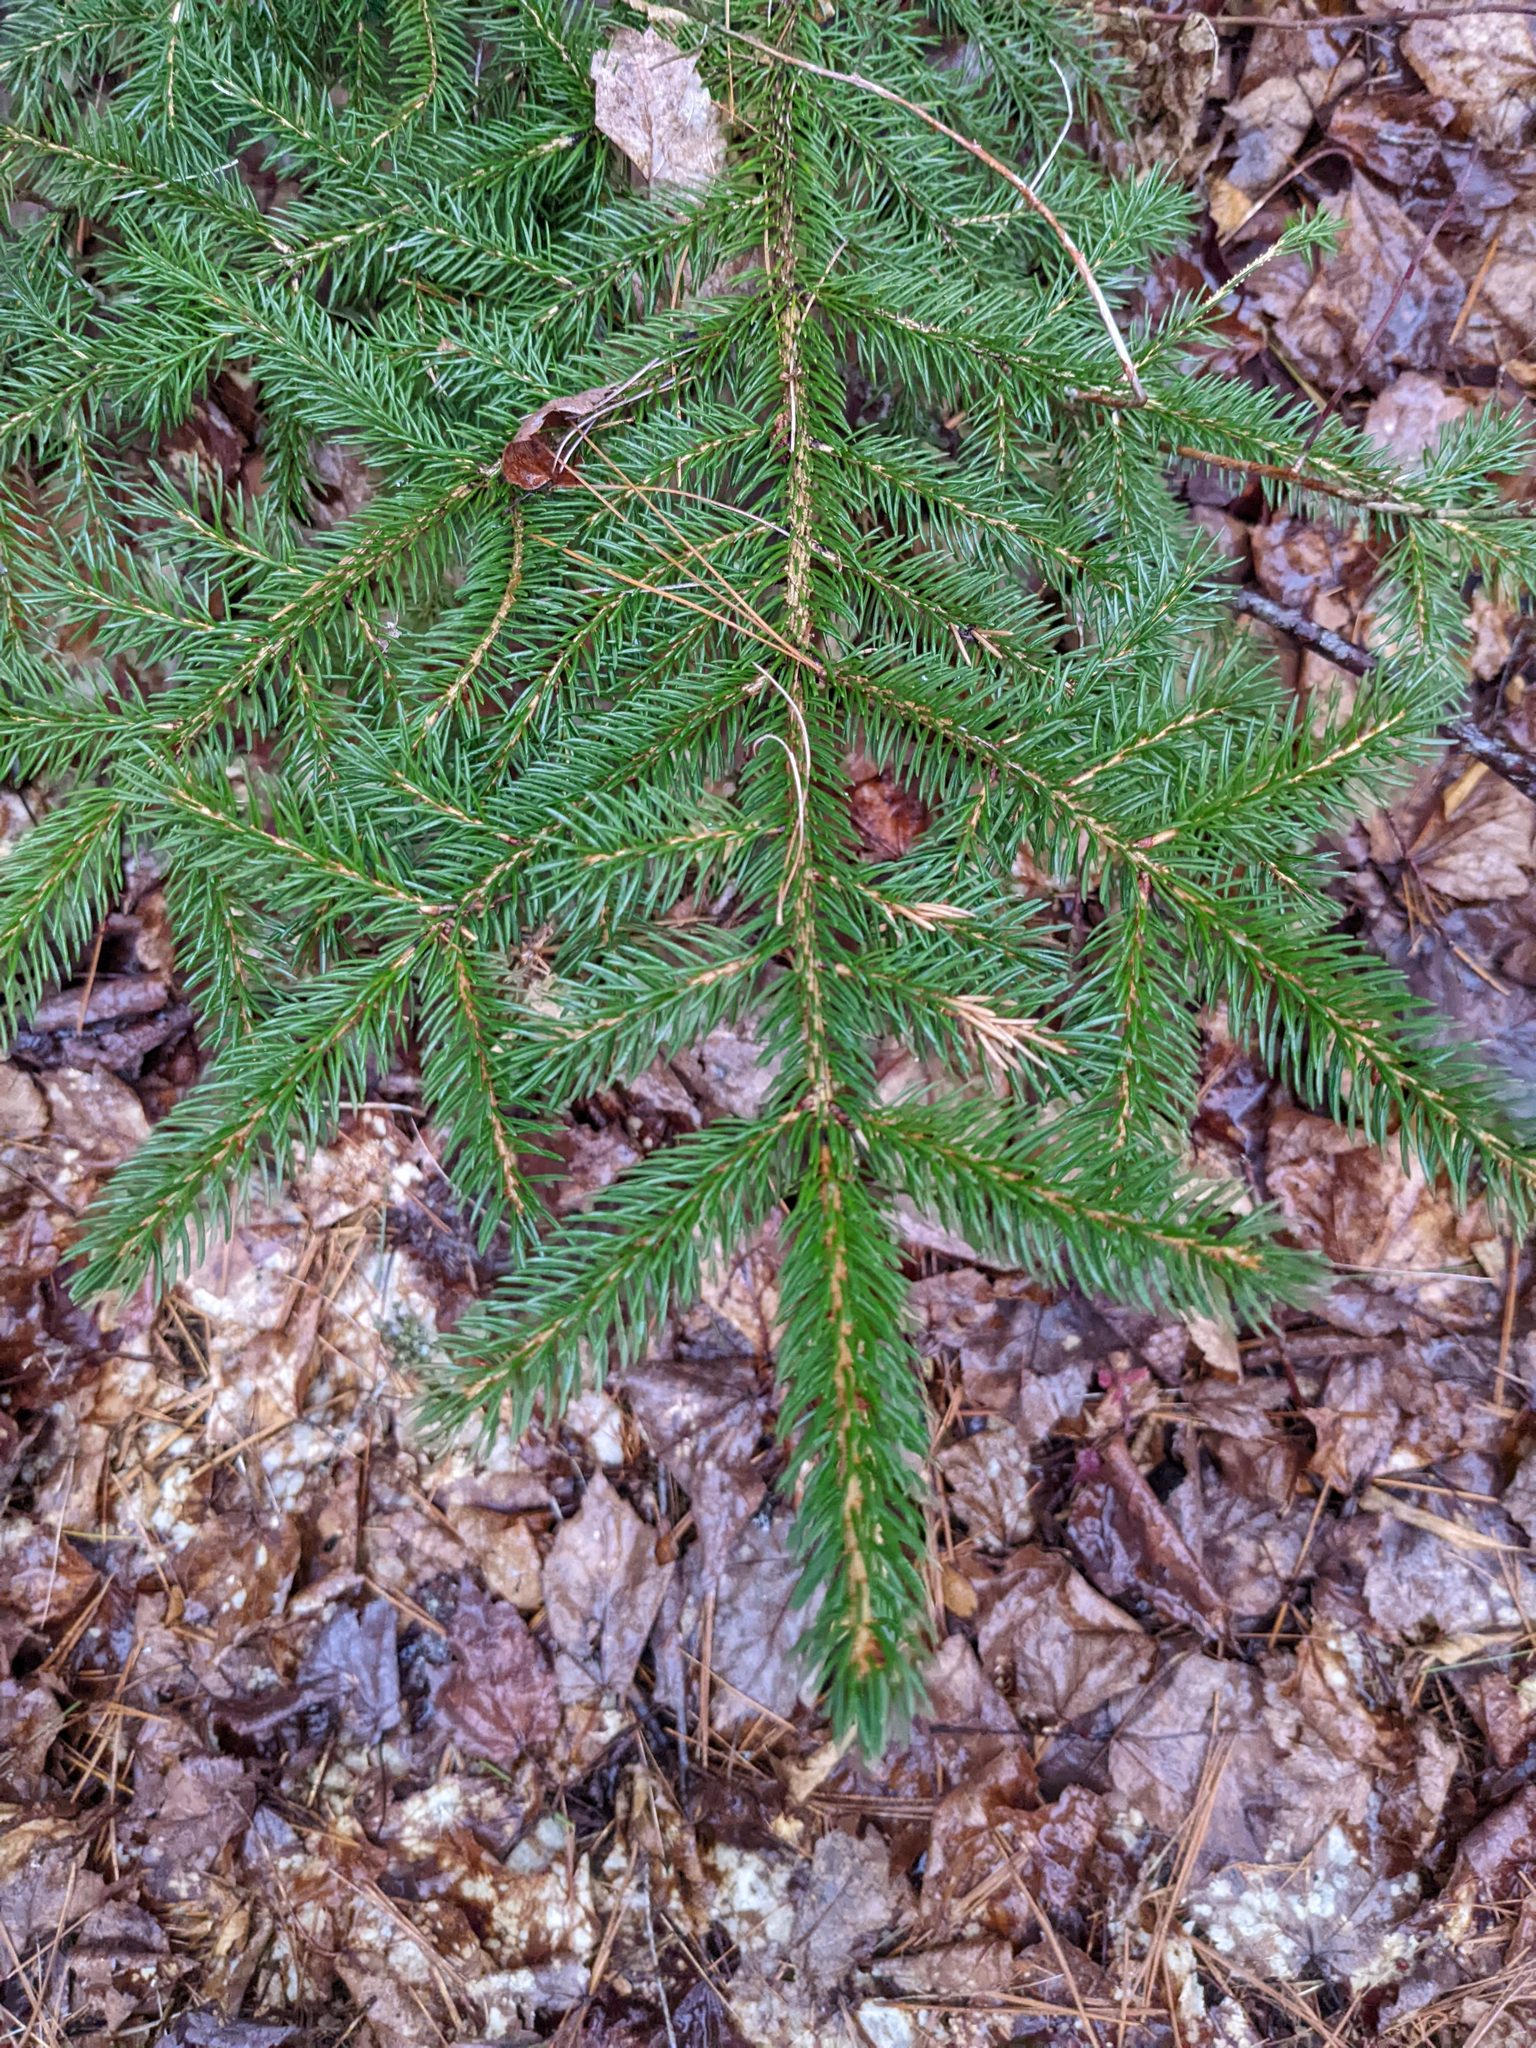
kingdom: Plantae
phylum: Tracheophyta
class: Pinopsida
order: Pinales
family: Pinaceae
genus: Picea
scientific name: Picea rubens
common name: Red spruce
